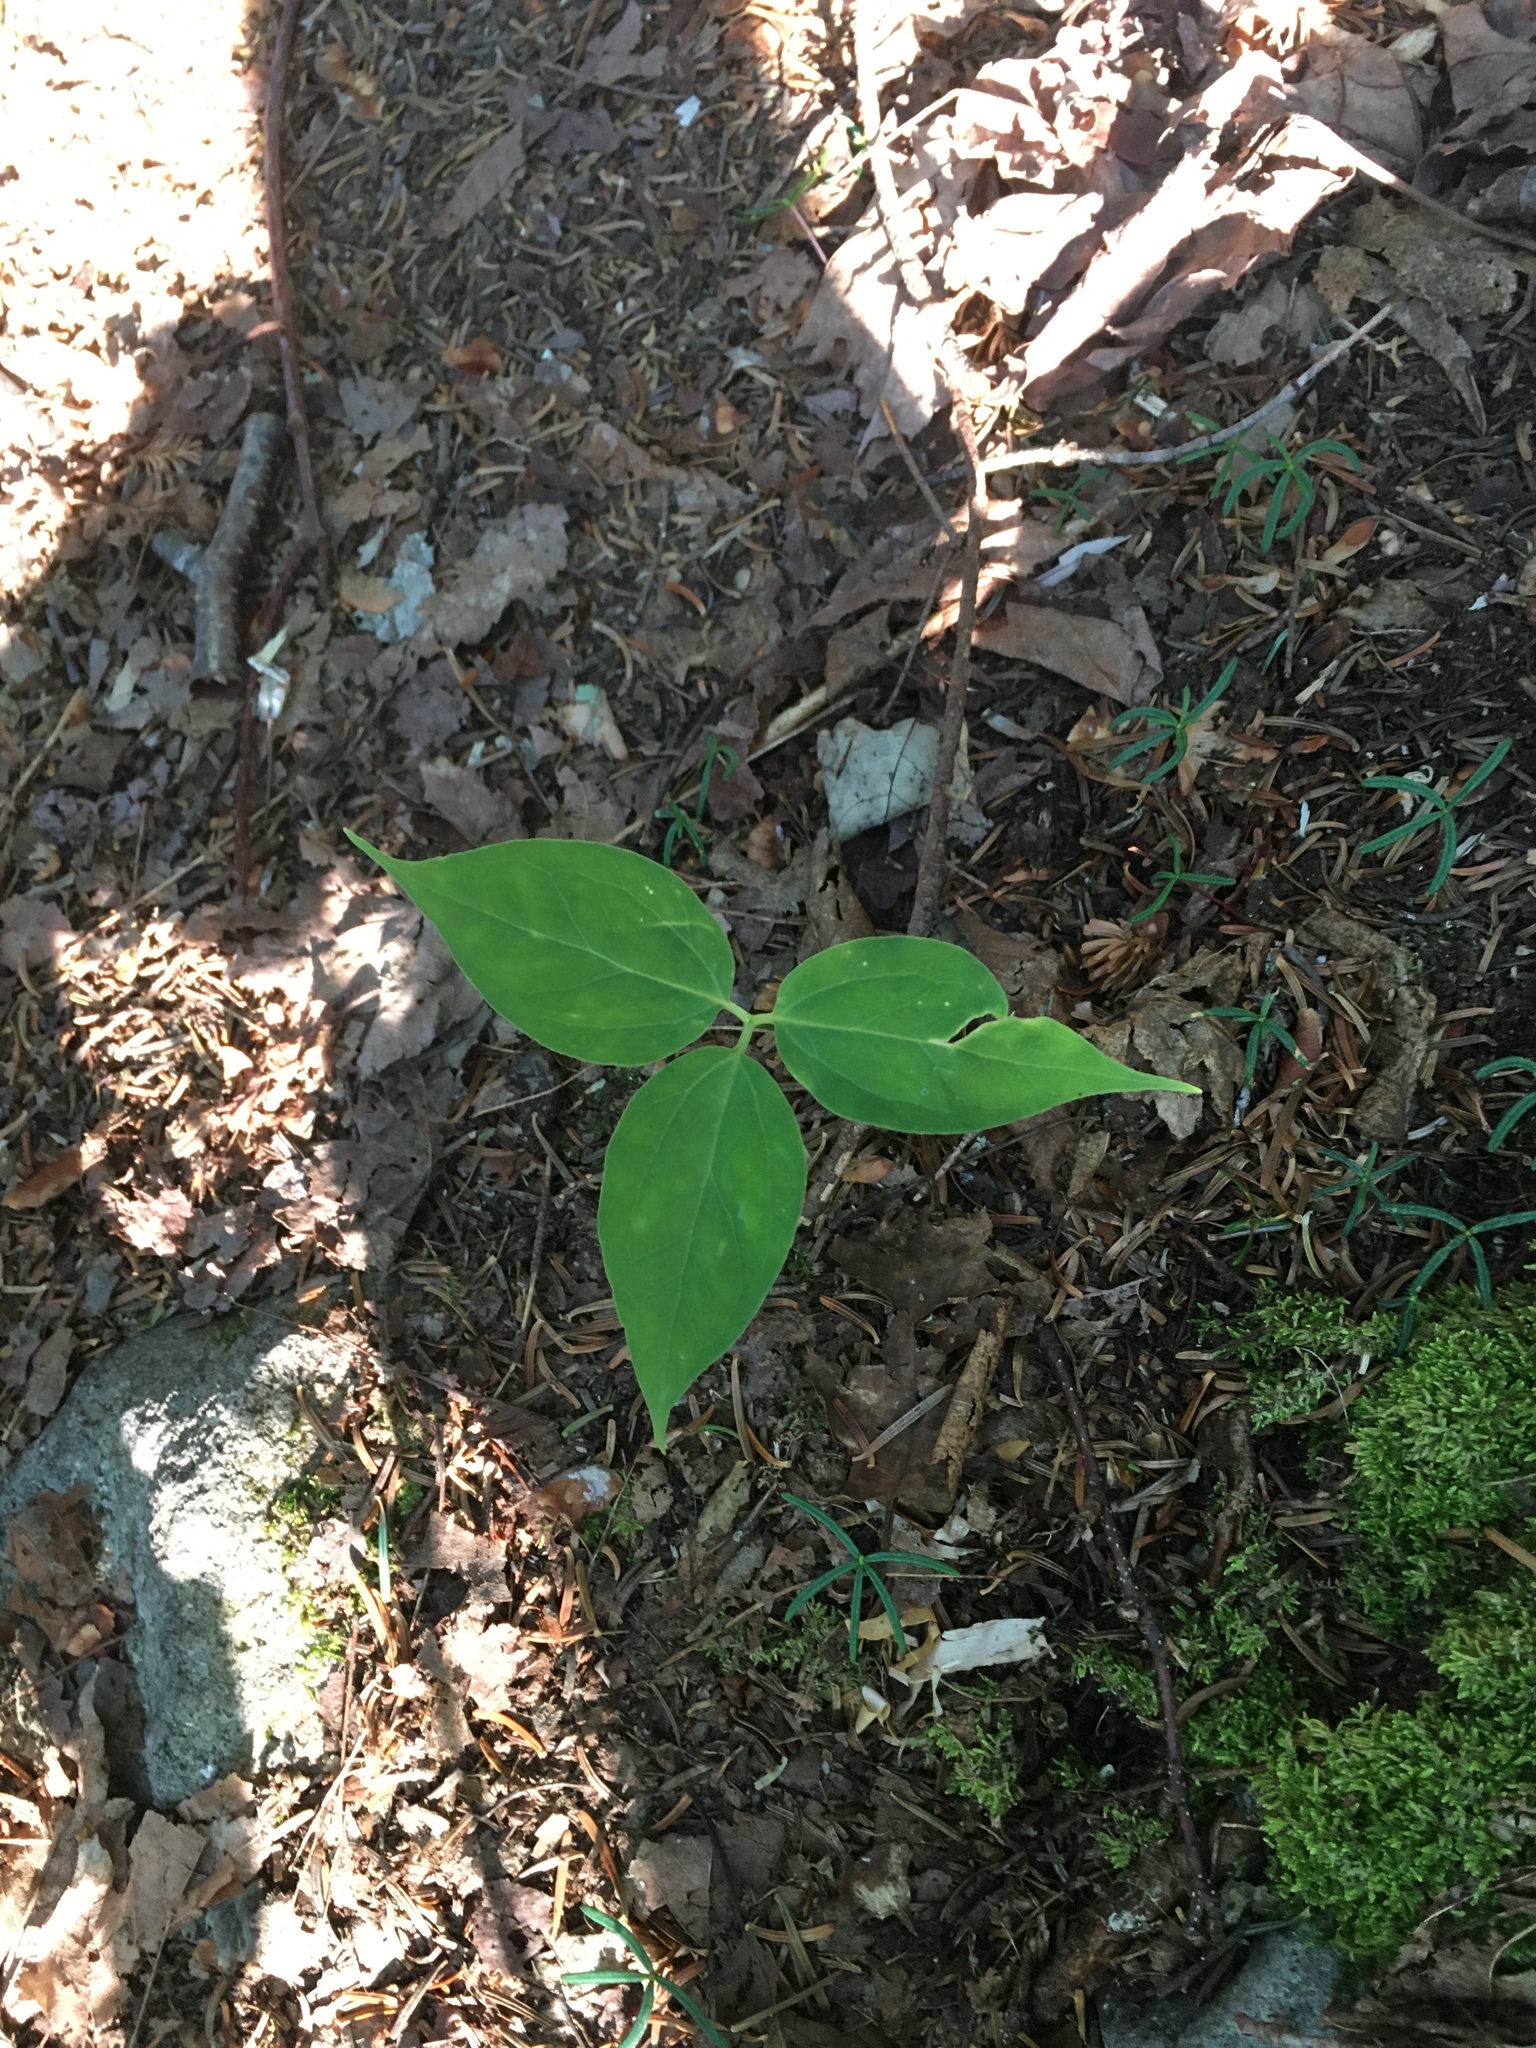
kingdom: Plantae
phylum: Tracheophyta
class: Liliopsida
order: Liliales
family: Melanthiaceae
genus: Trillium
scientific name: Trillium undulatum
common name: Paint trillium
